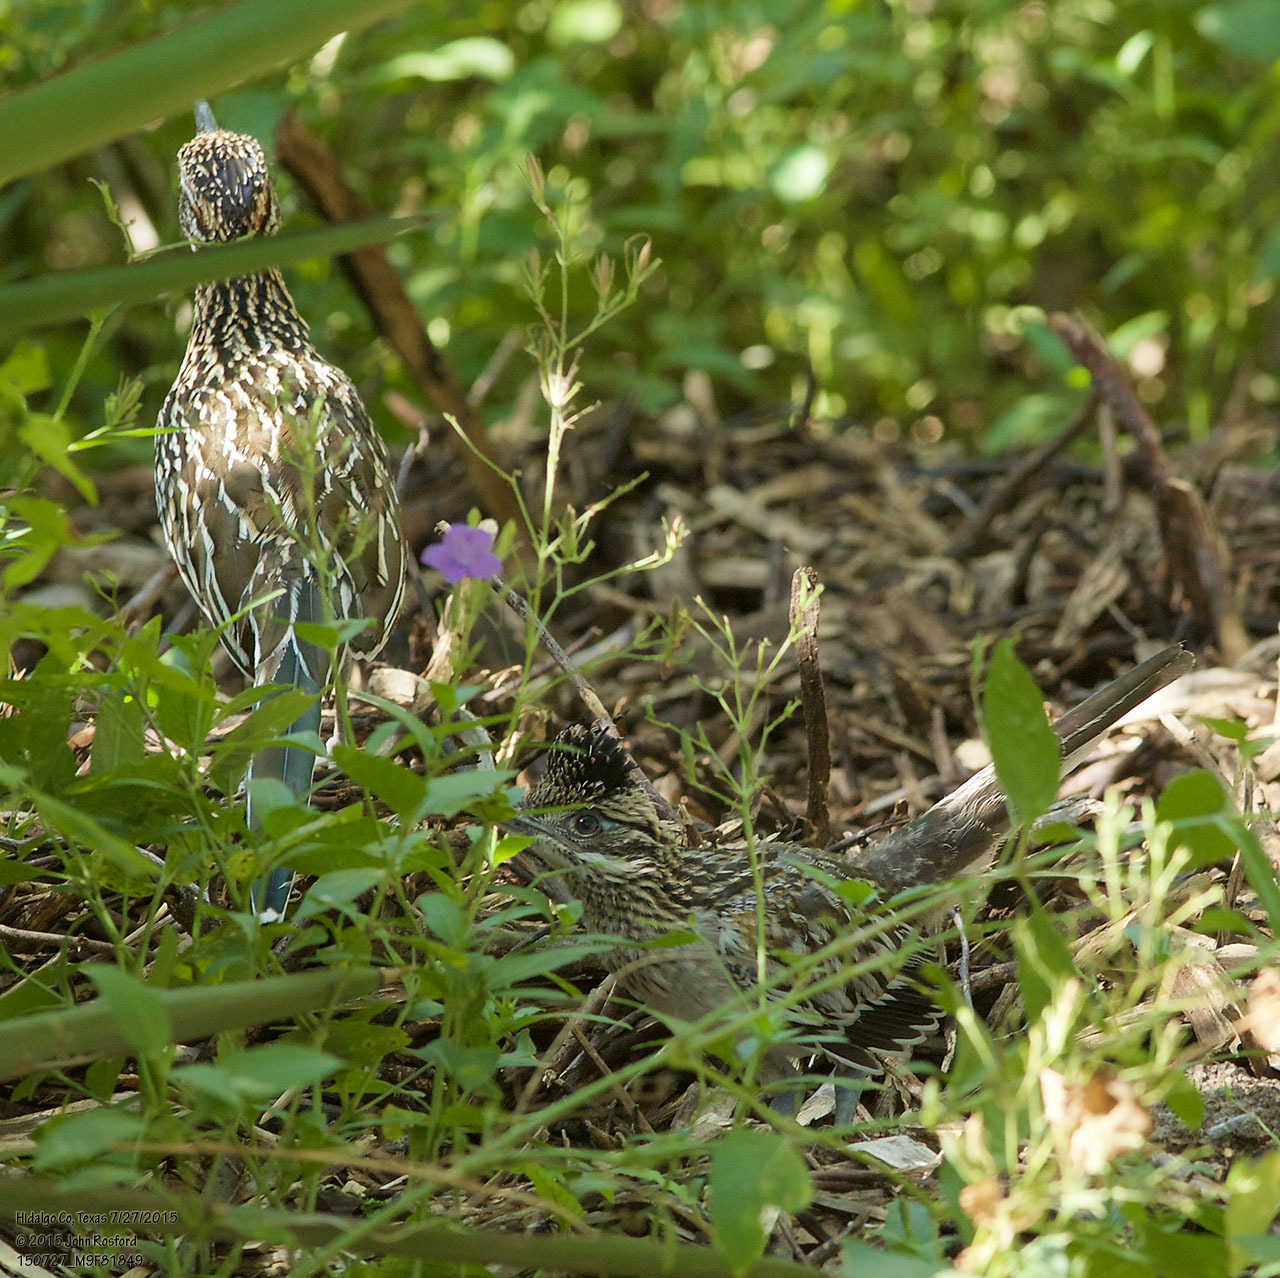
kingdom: Animalia
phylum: Chordata
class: Aves
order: Cuculiformes
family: Cuculidae
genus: Geococcyx
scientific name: Geococcyx californianus
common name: Greater roadrunner
